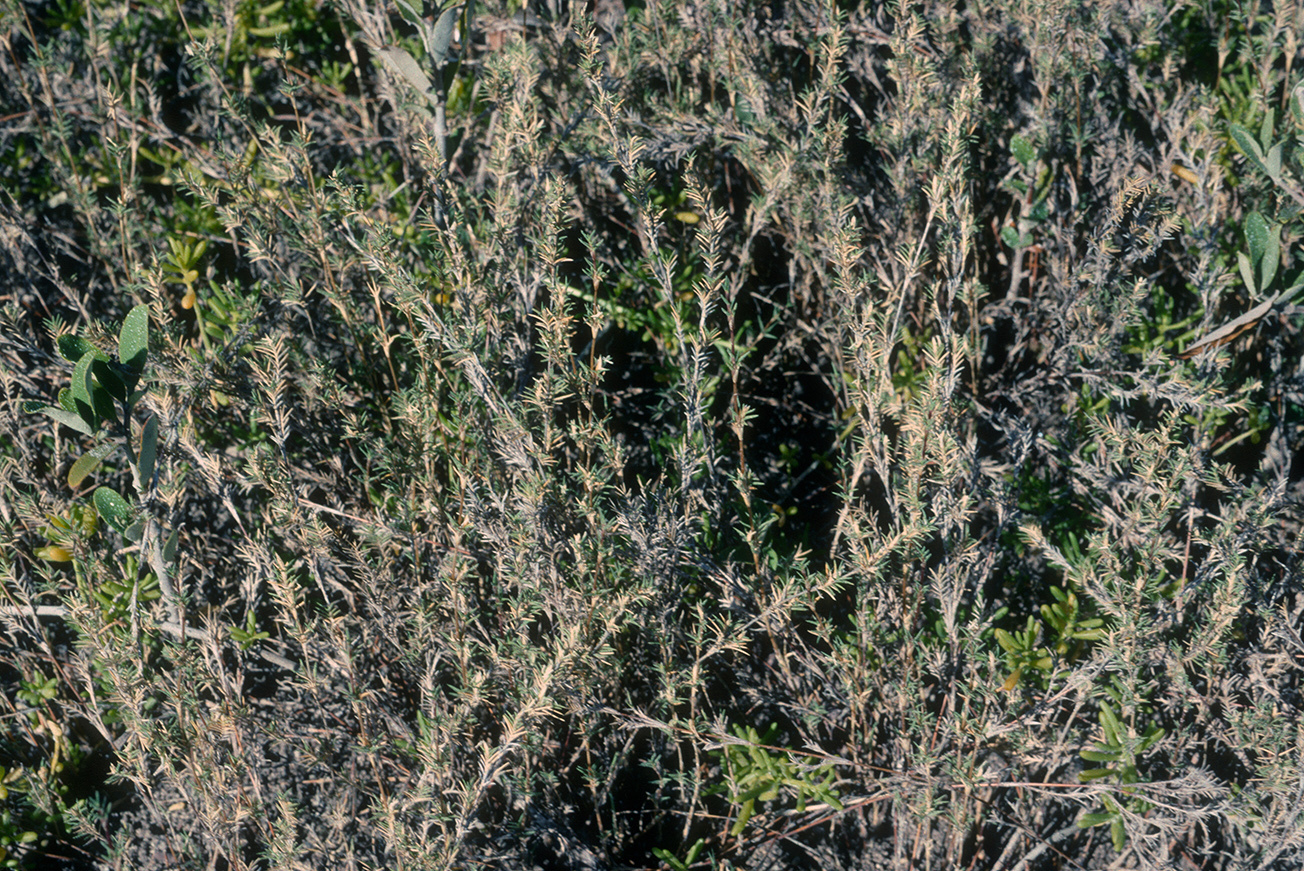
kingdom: Plantae
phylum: Tracheophyta
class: Liliopsida
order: Poales
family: Poaceae
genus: Distichlis
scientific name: Distichlis littoralis
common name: Shore grass
